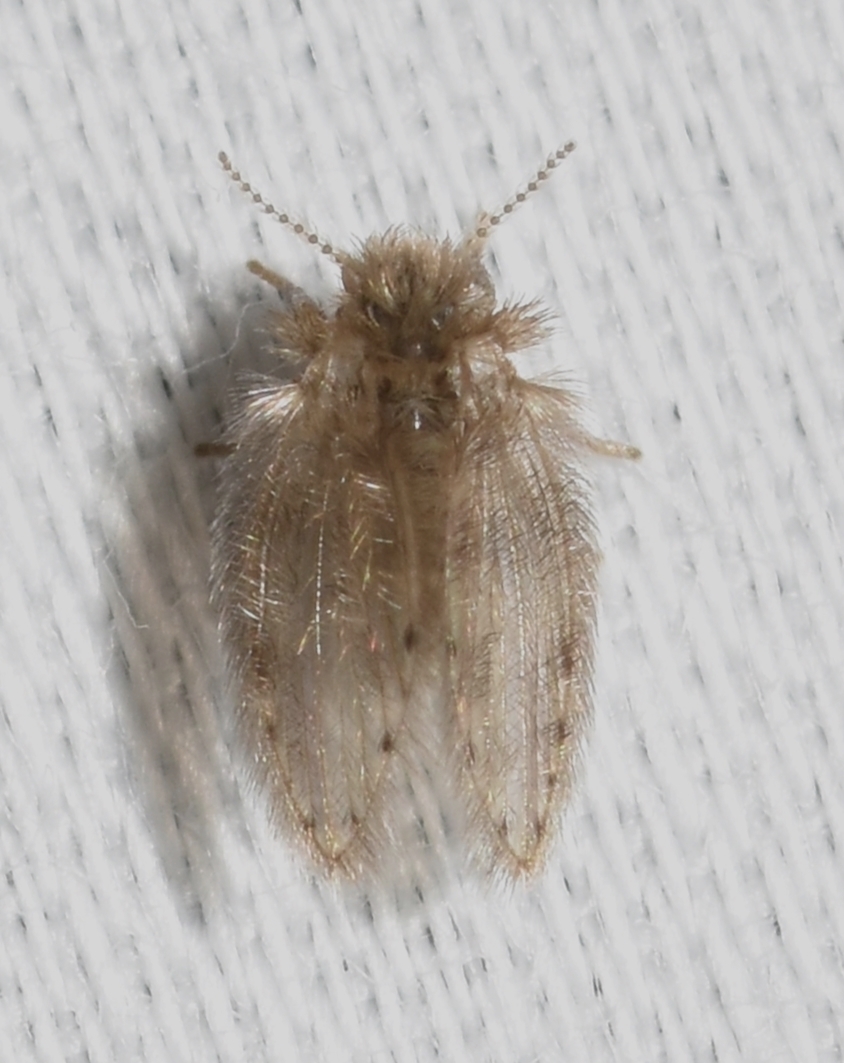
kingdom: Animalia
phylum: Arthropoda
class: Insecta
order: Diptera
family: Psychodidae
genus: Psychoda
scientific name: Psychoda alternata
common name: Moth fly
